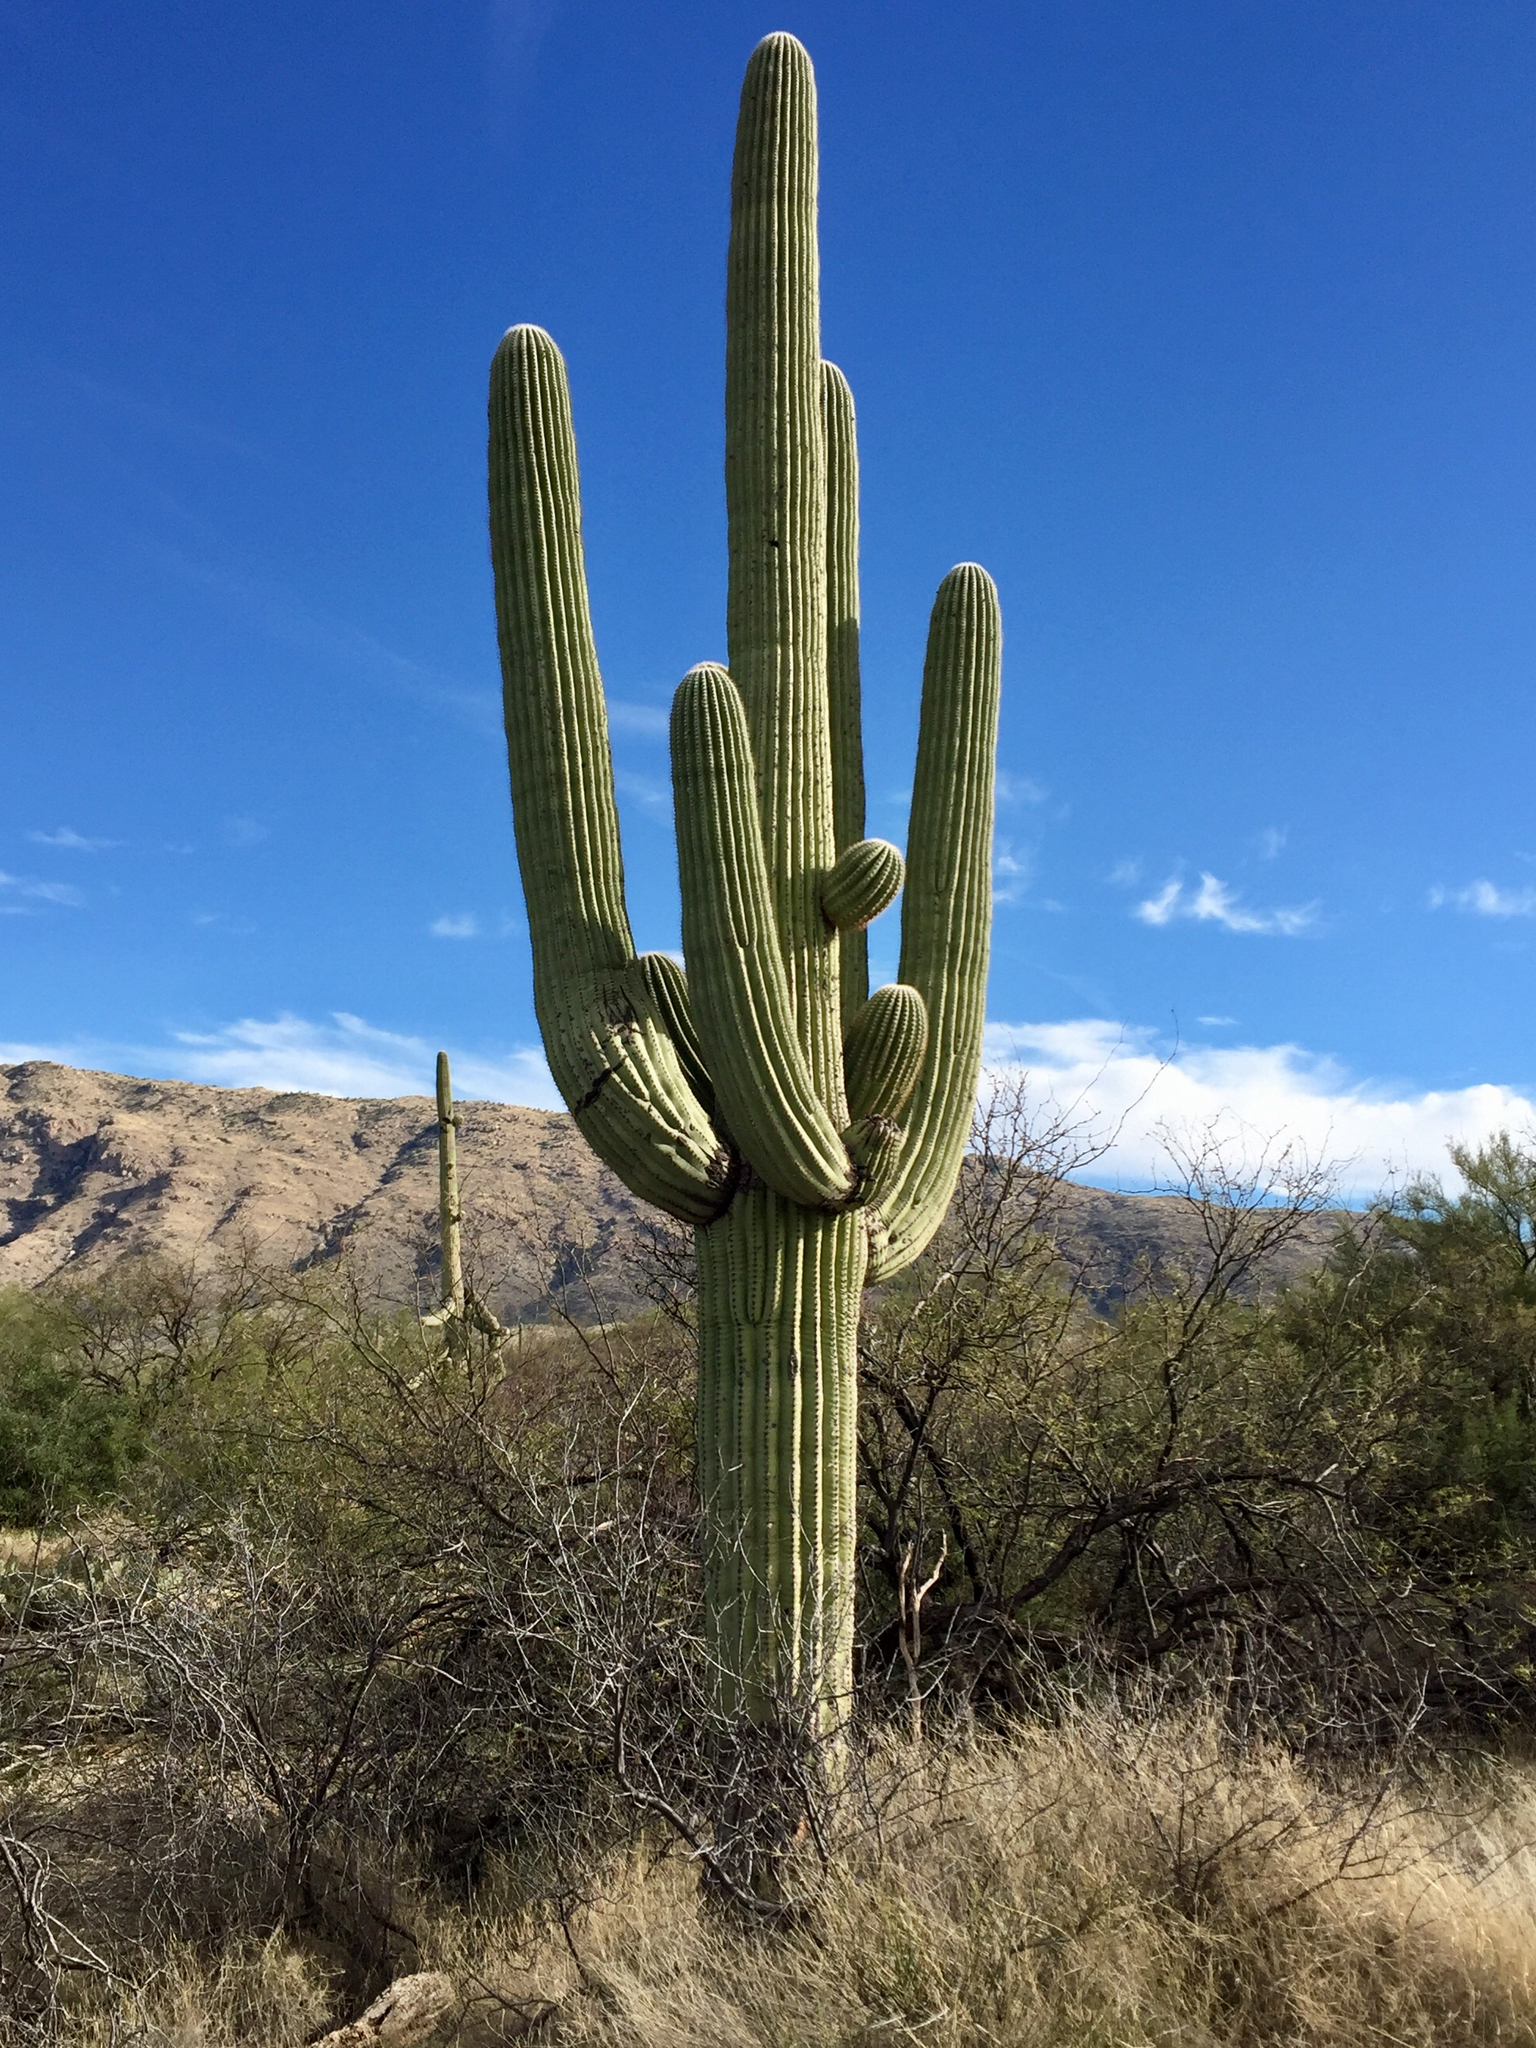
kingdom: Plantae
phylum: Tracheophyta
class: Magnoliopsida
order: Caryophyllales
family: Cactaceae
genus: Carnegiea
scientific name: Carnegiea gigantea
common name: Saguaro
